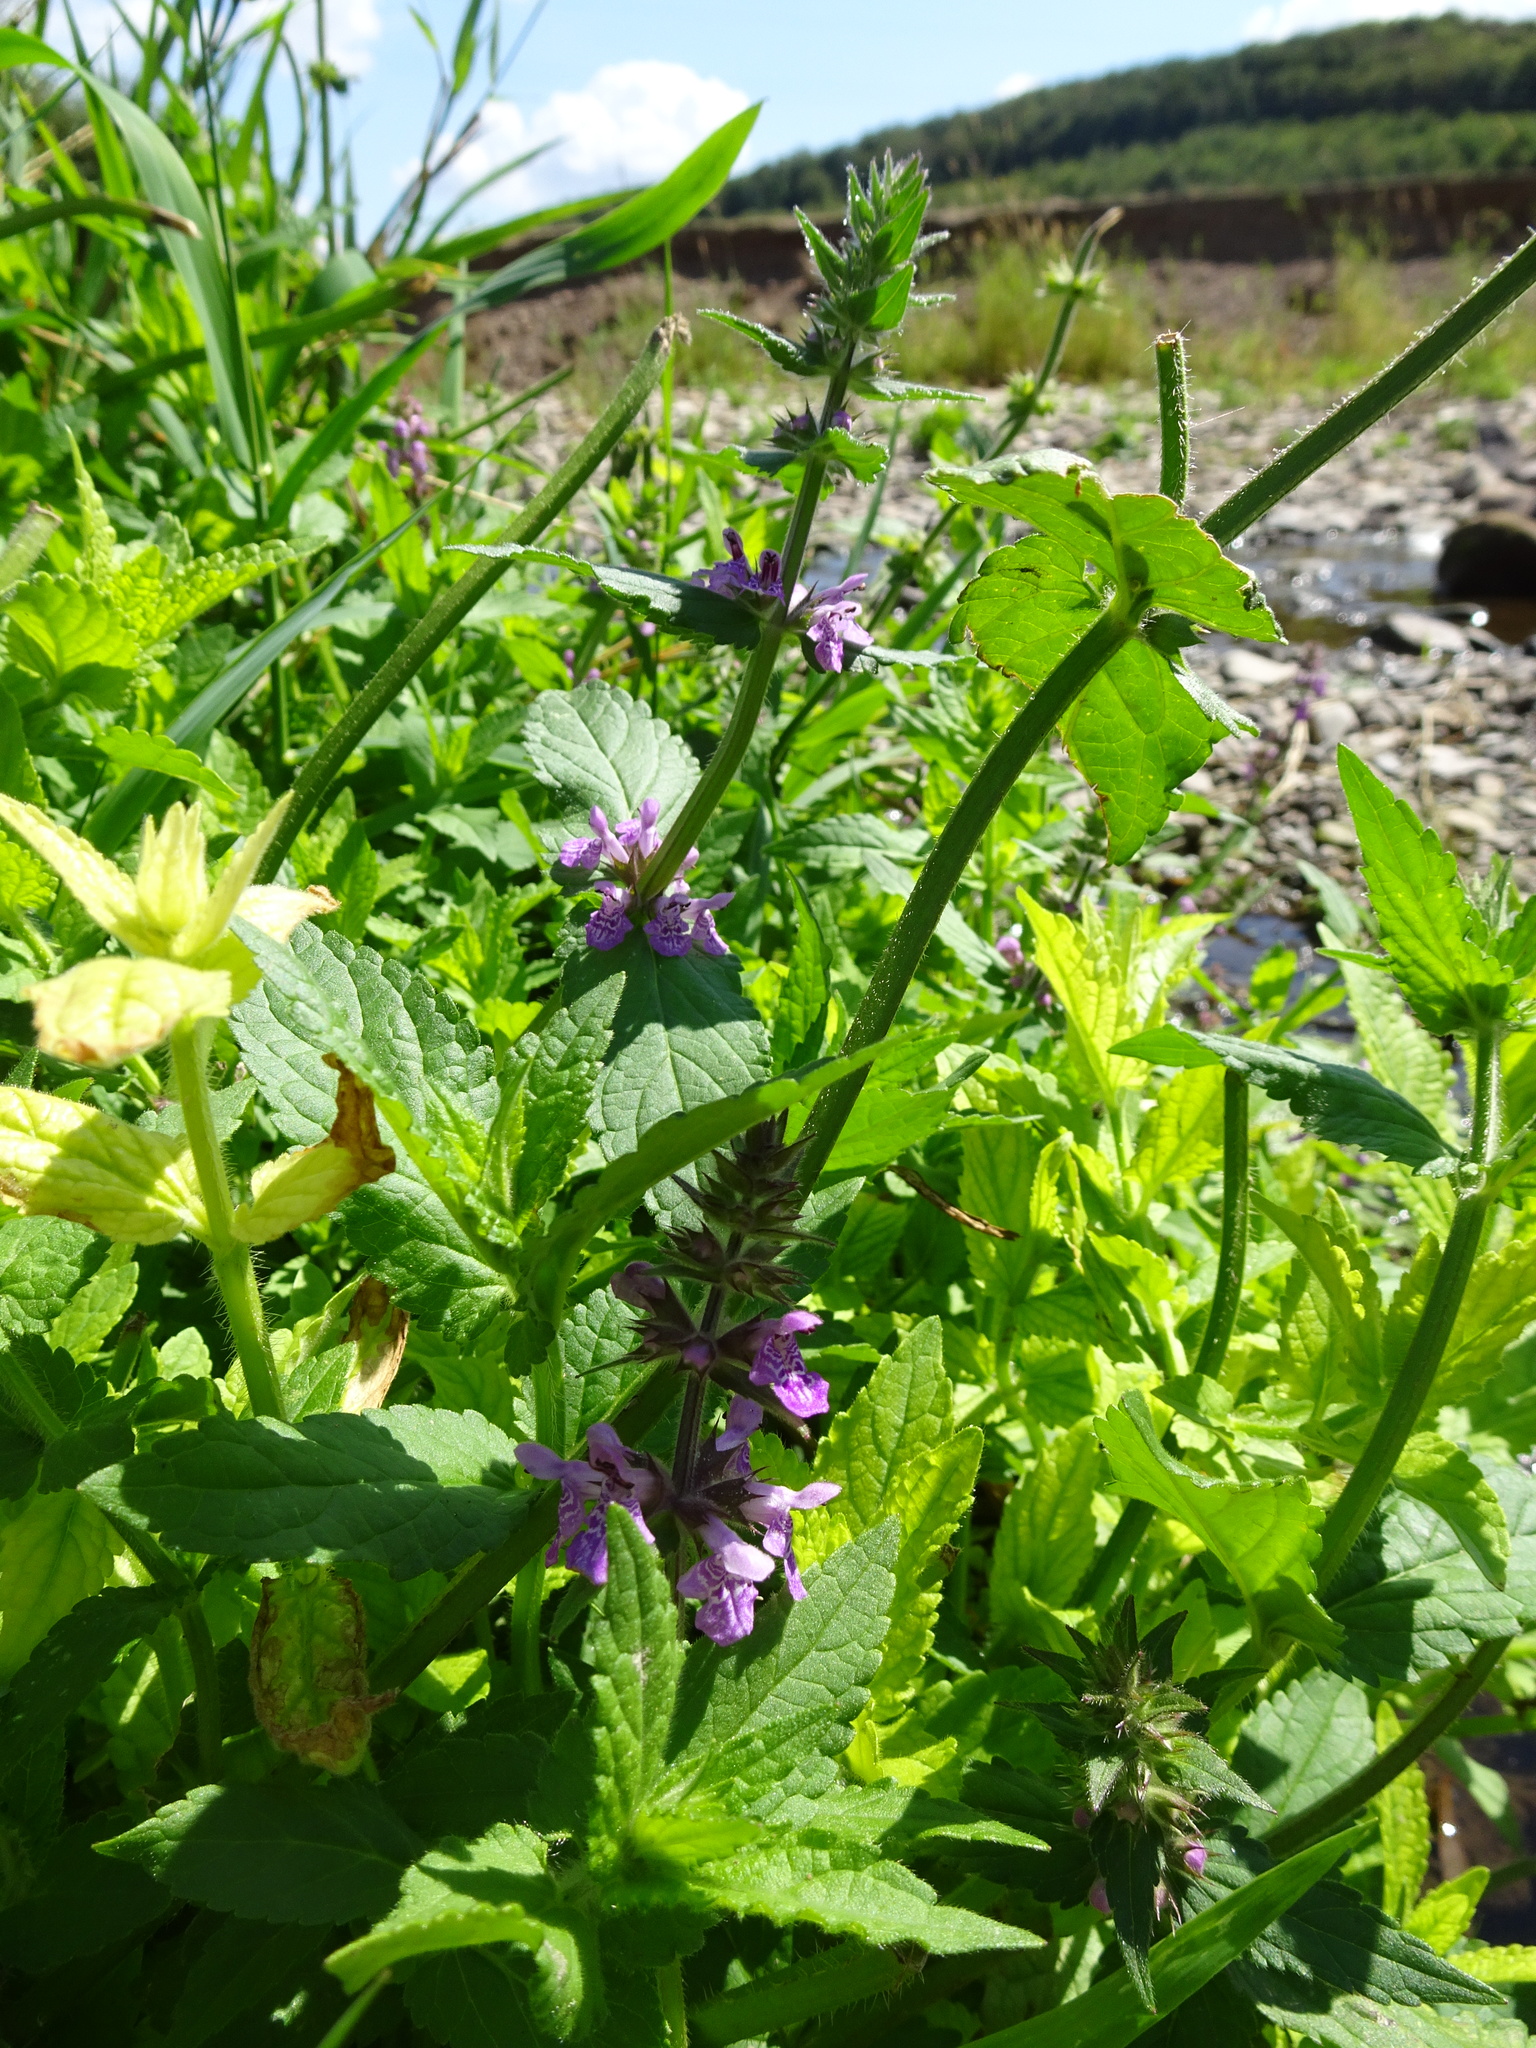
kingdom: Plantae
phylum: Tracheophyta
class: Magnoliopsida
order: Lamiales
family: Lamiaceae
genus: Stachys
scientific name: Stachys palustris
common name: Marsh woundwort
